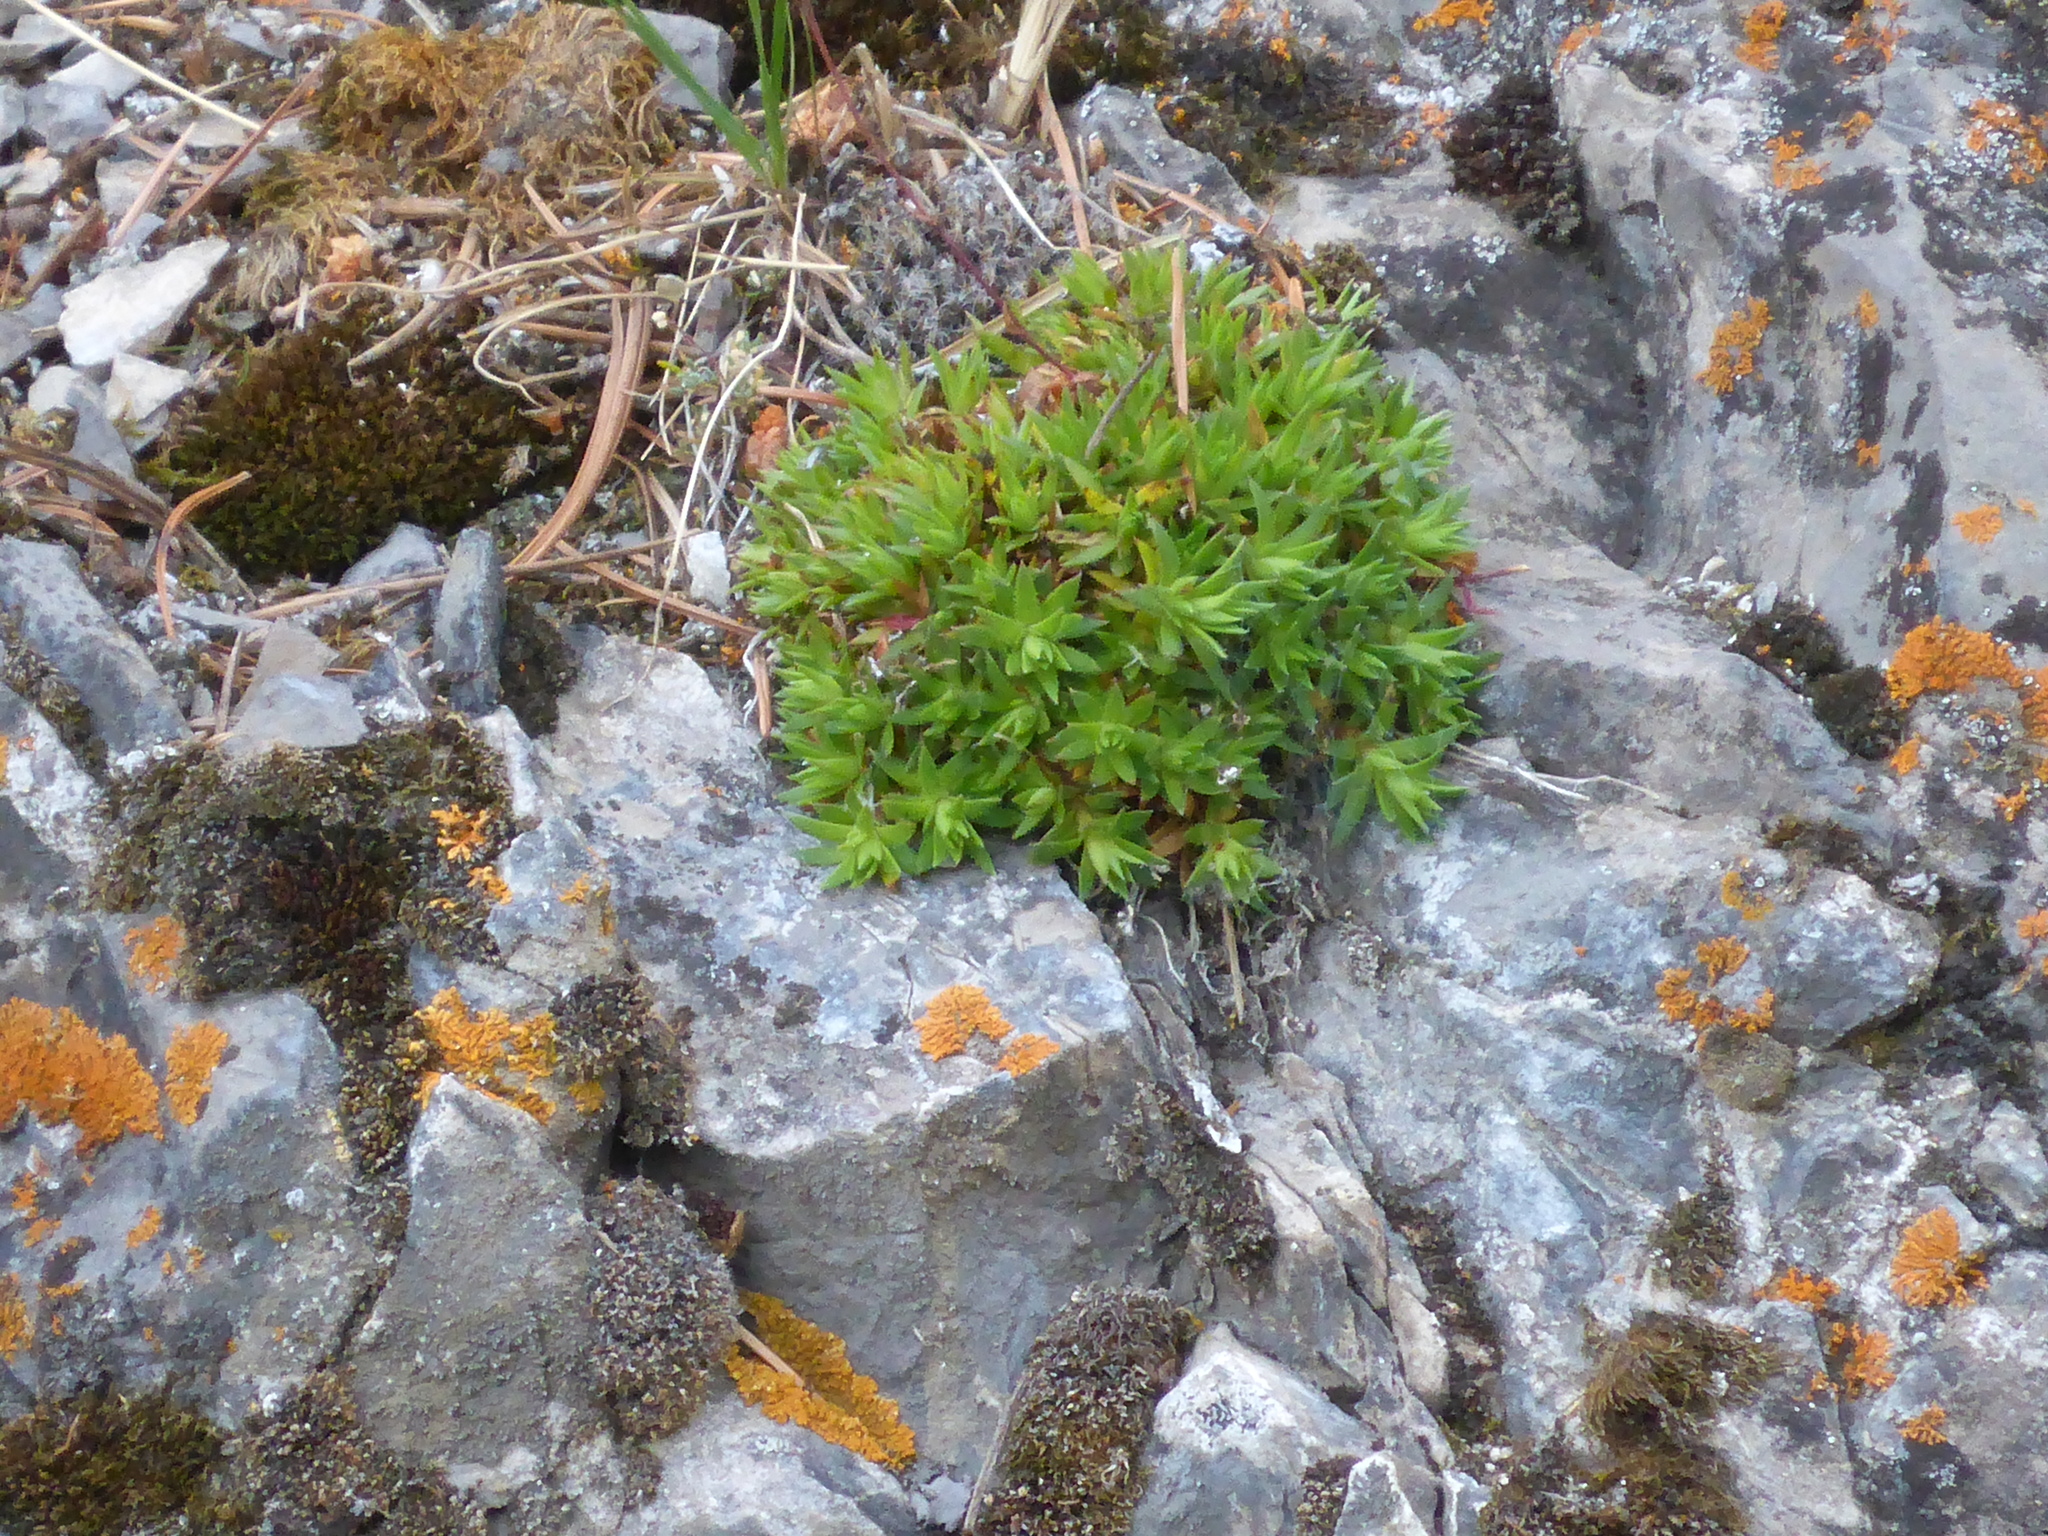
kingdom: Plantae
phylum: Tracheophyta
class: Magnoliopsida
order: Saxifragales
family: Saxifragaceae
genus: Saxifraga
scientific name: Saxifraga bronchialis
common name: Matted saxifrage
